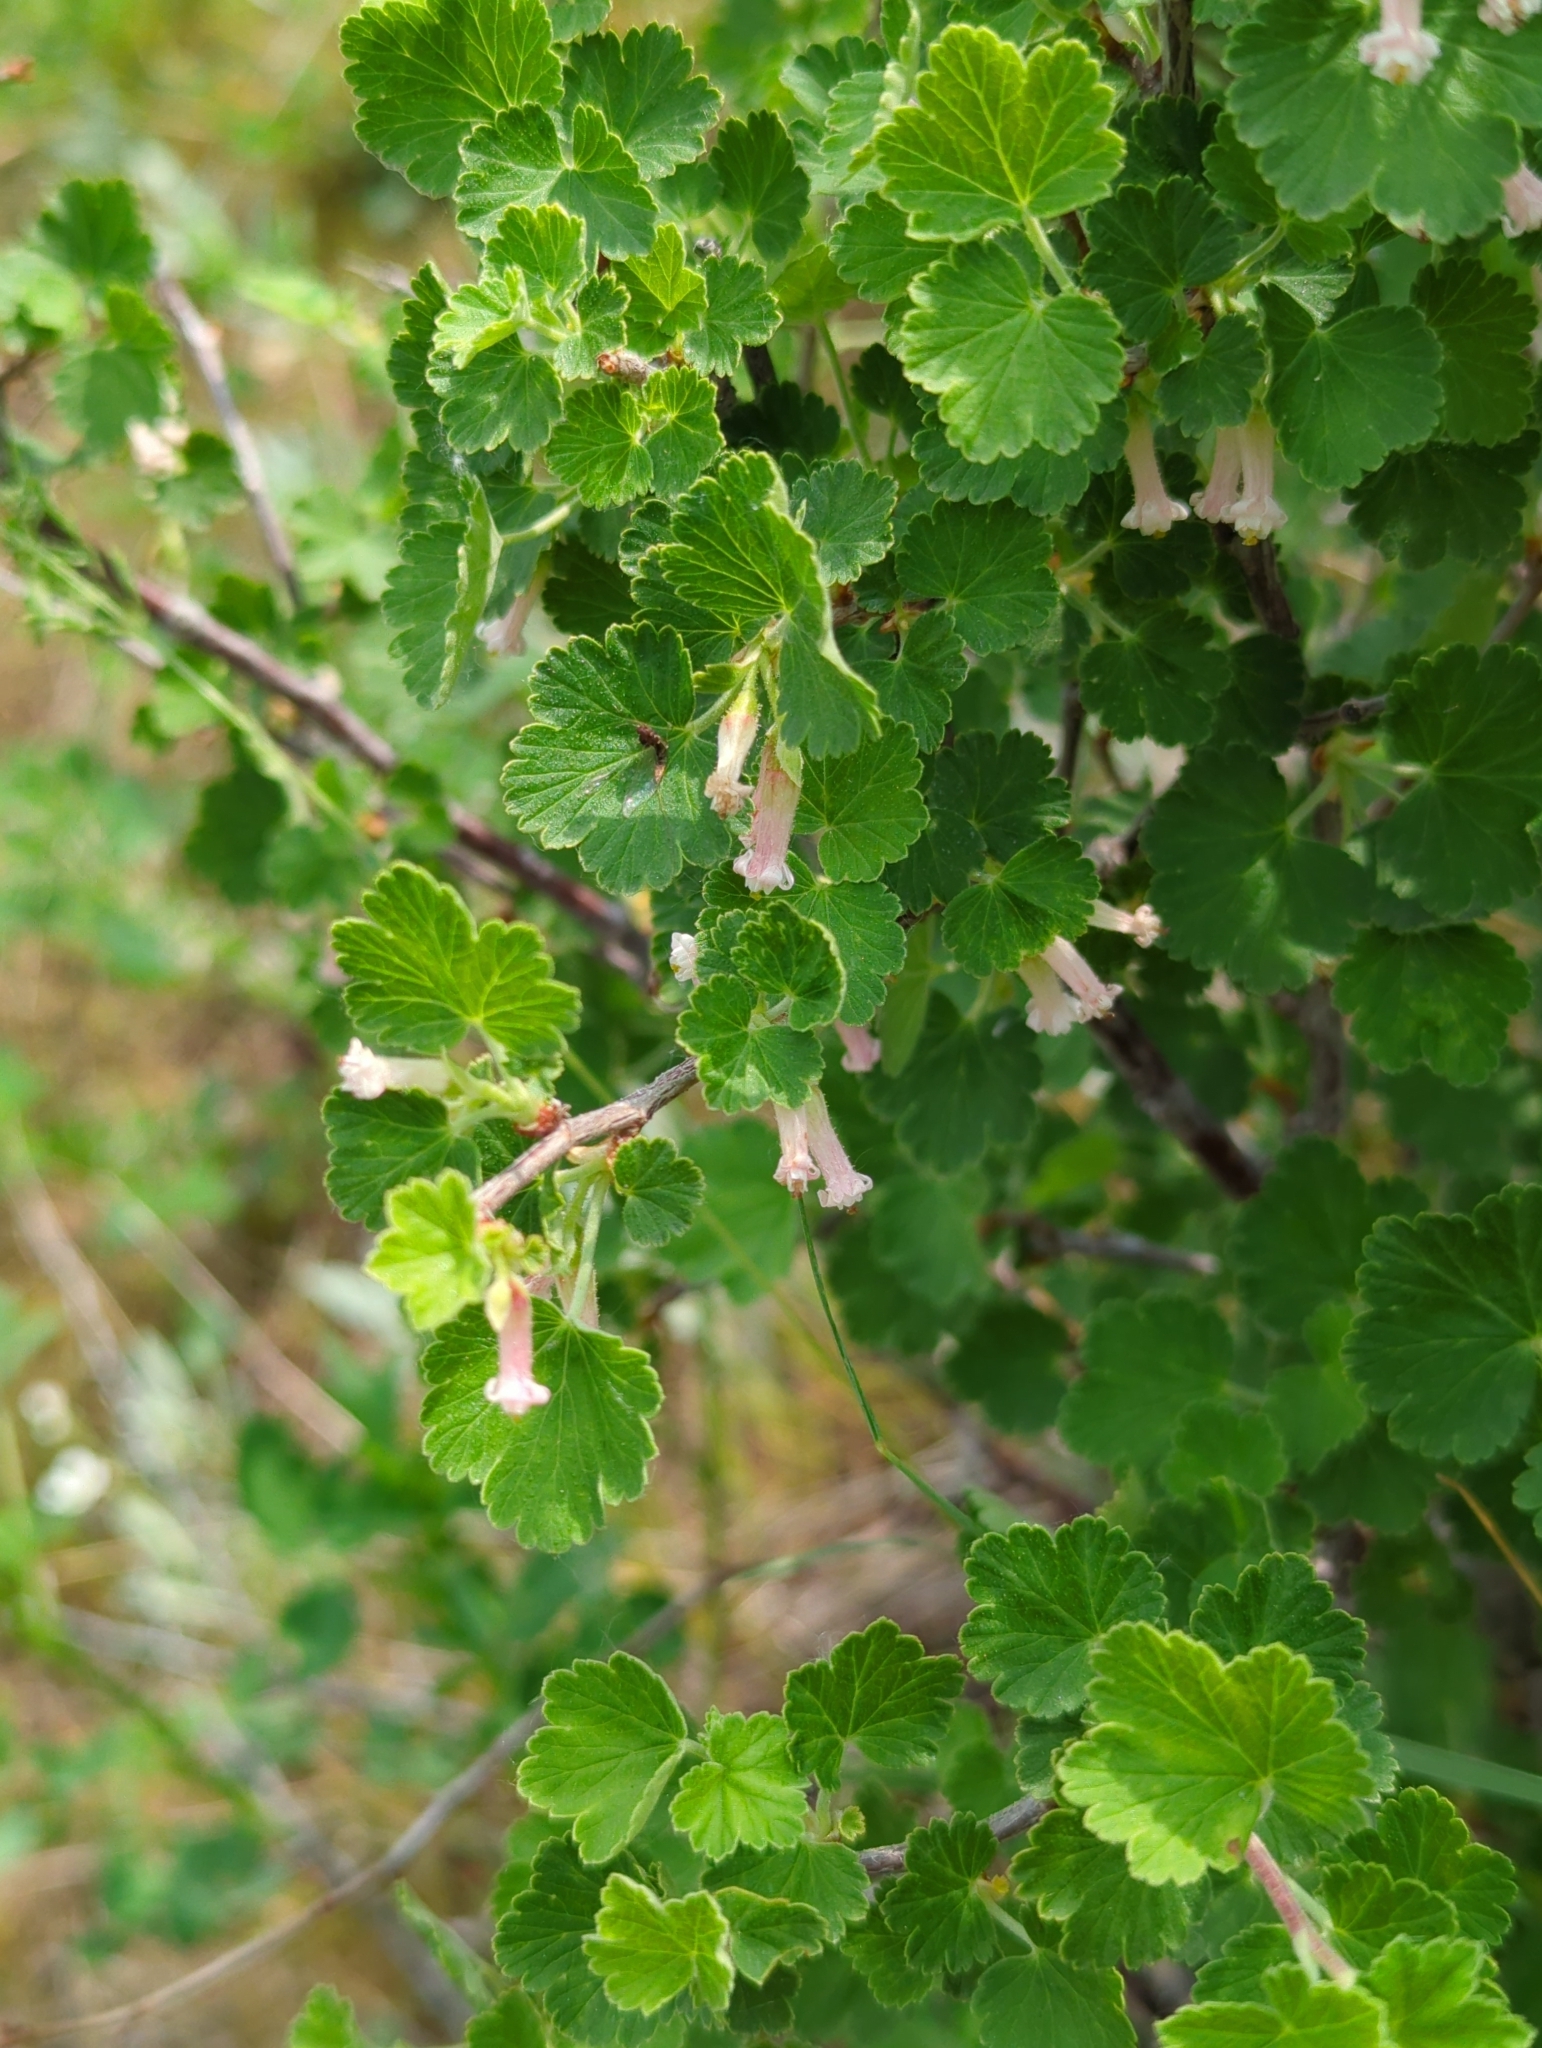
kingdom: Plantae
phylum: Tracheophyta
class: Magnoliopsida
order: Saxifragales
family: Grossulariaceae
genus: Ribes
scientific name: Ribes cereum
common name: Wax currant
